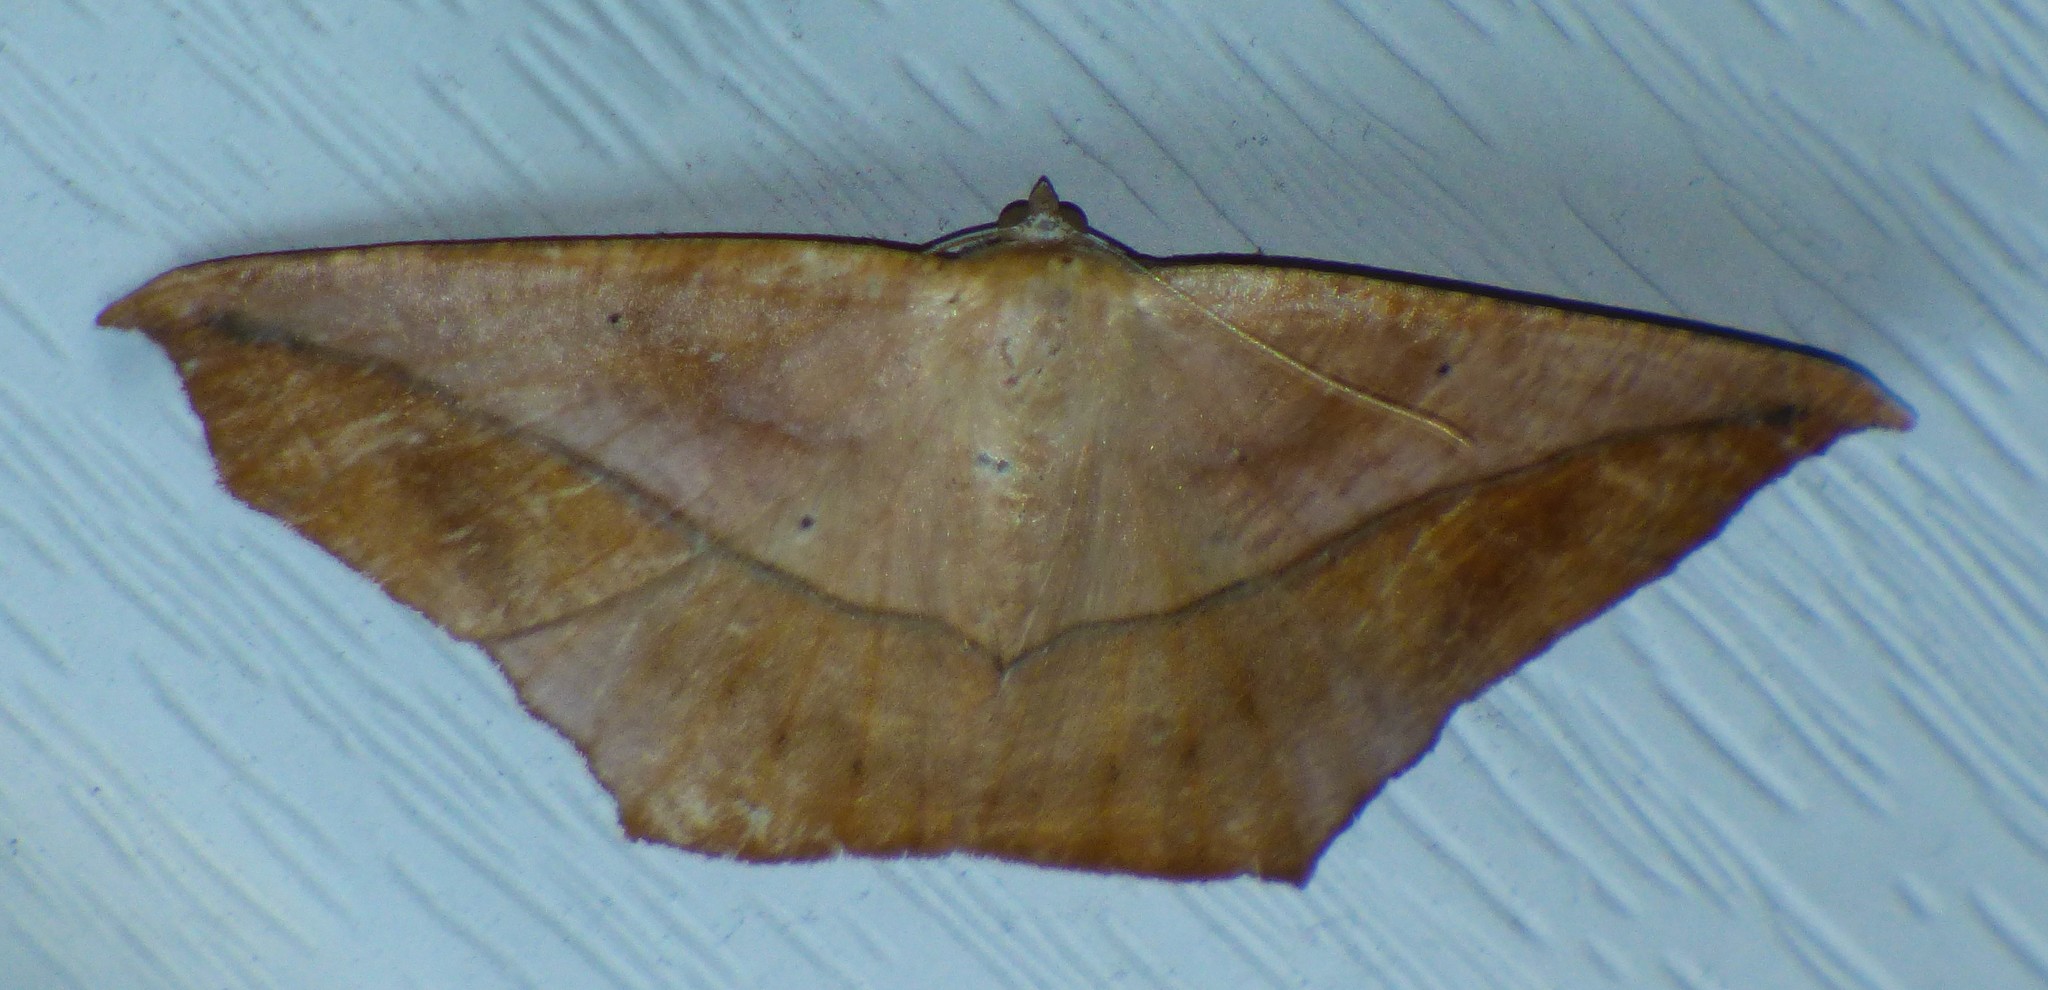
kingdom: Animalia
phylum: Arthropoda
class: Insecta
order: Lepidoptera
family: Geometridae
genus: Prochoerodes
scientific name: Prochoerodes lineola
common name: Large maple spanworm
